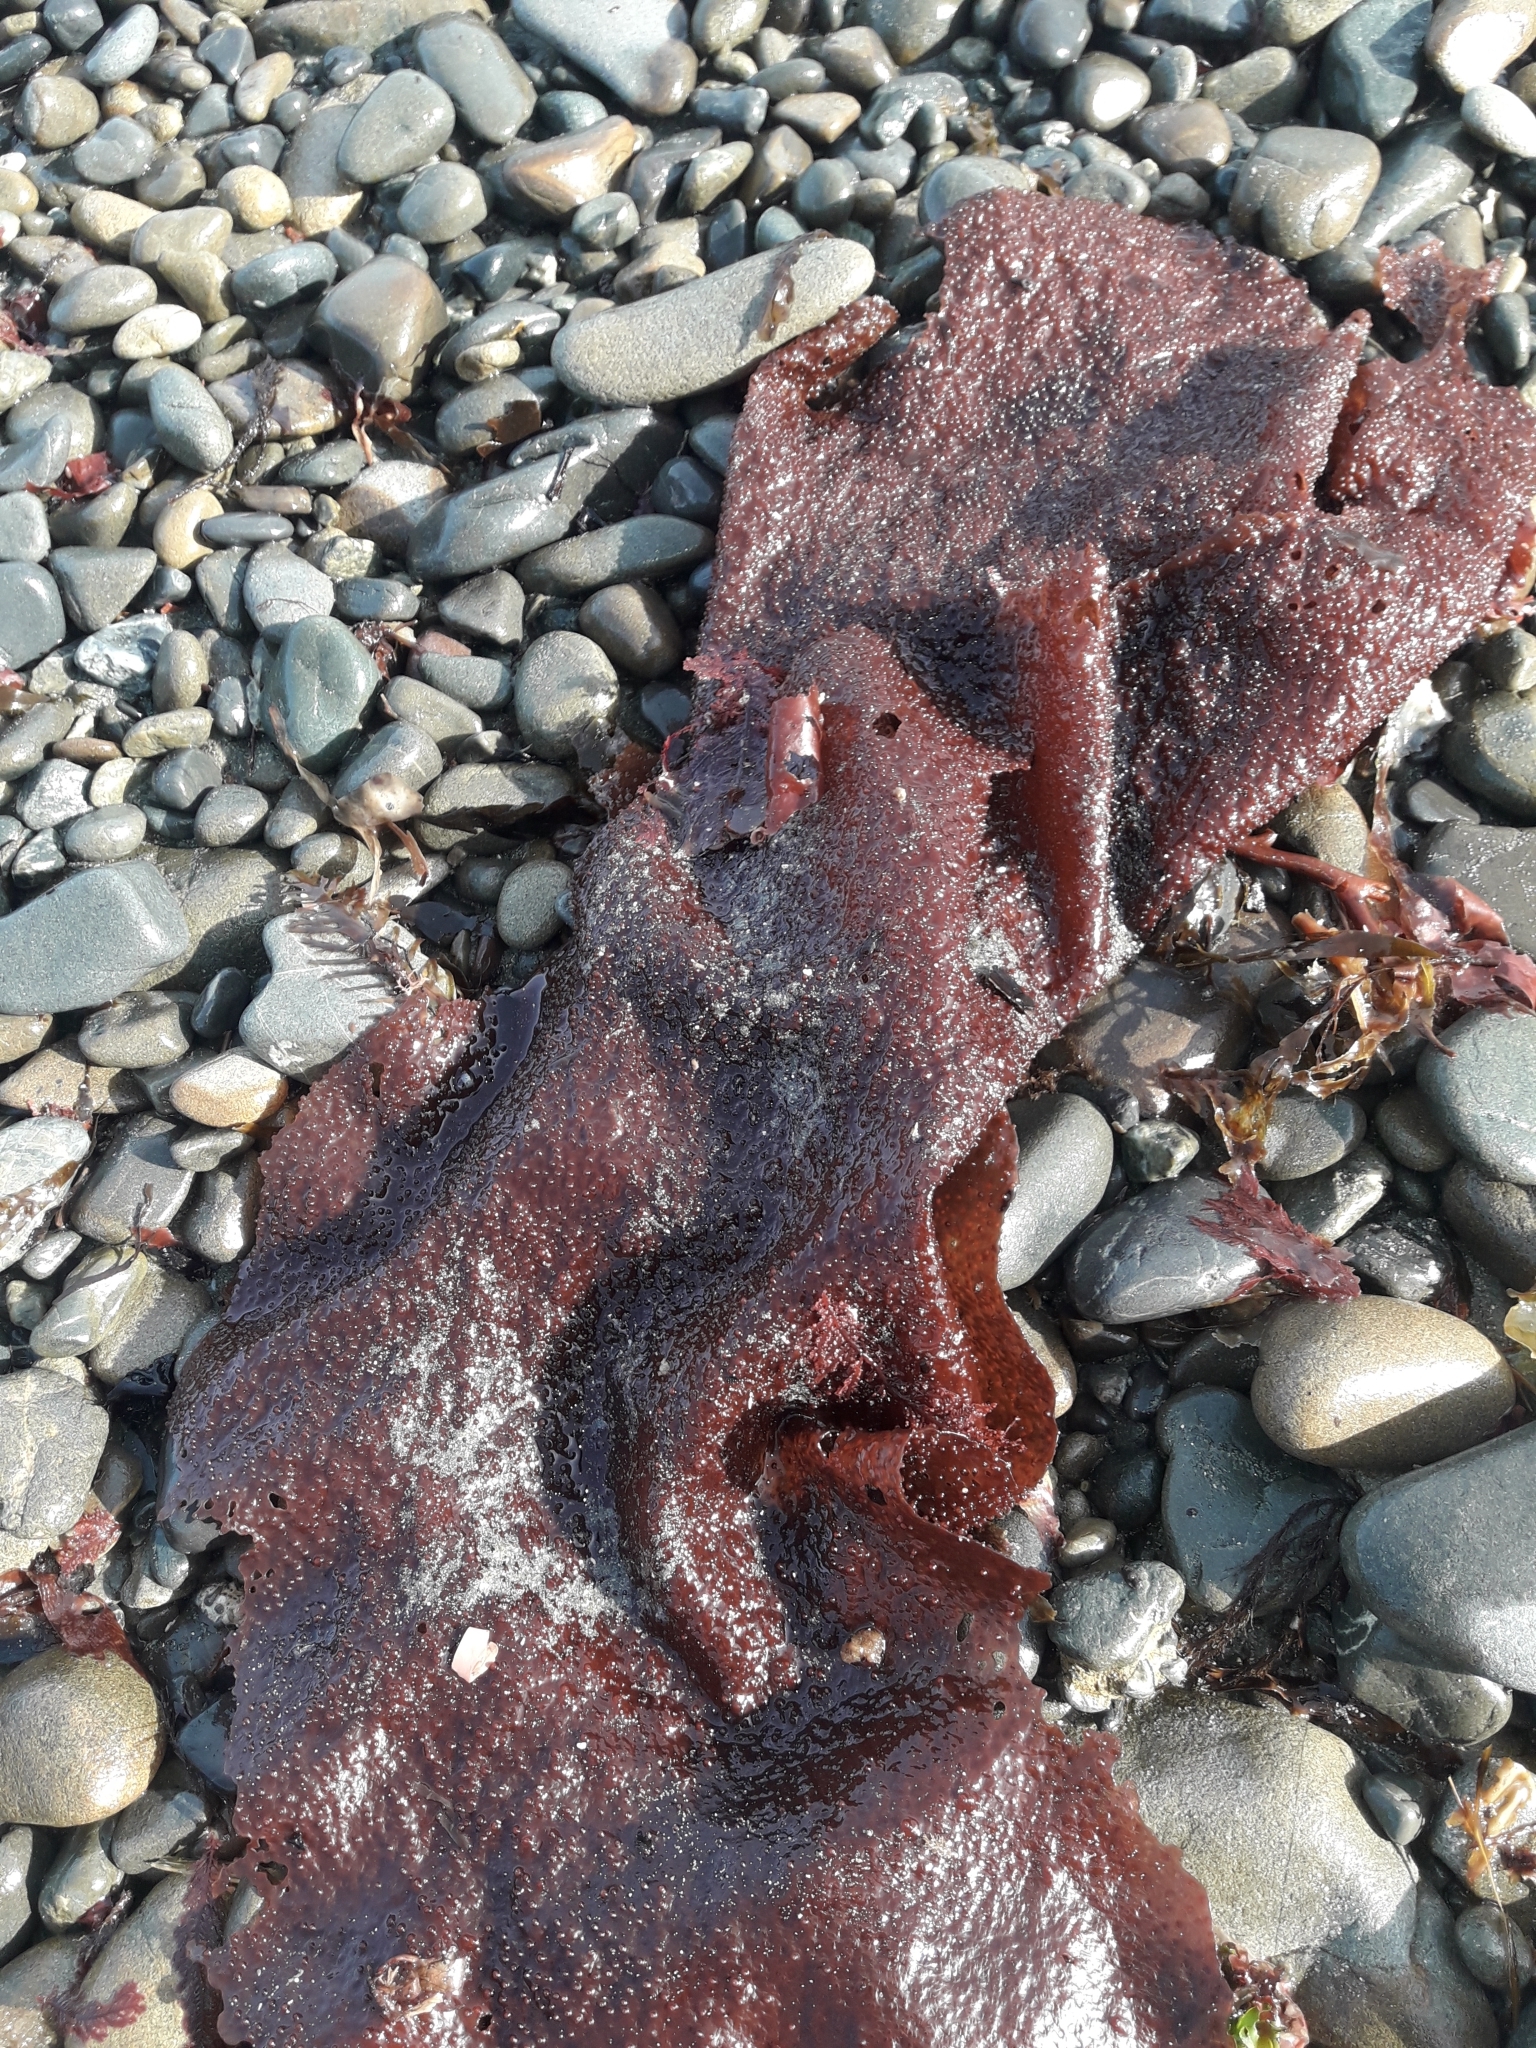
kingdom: Plantae
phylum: Rhodophyta
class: Florideophyceae
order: Gigartinales
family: Gigartinaceae
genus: Sarcothalia
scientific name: Sarcothalia
